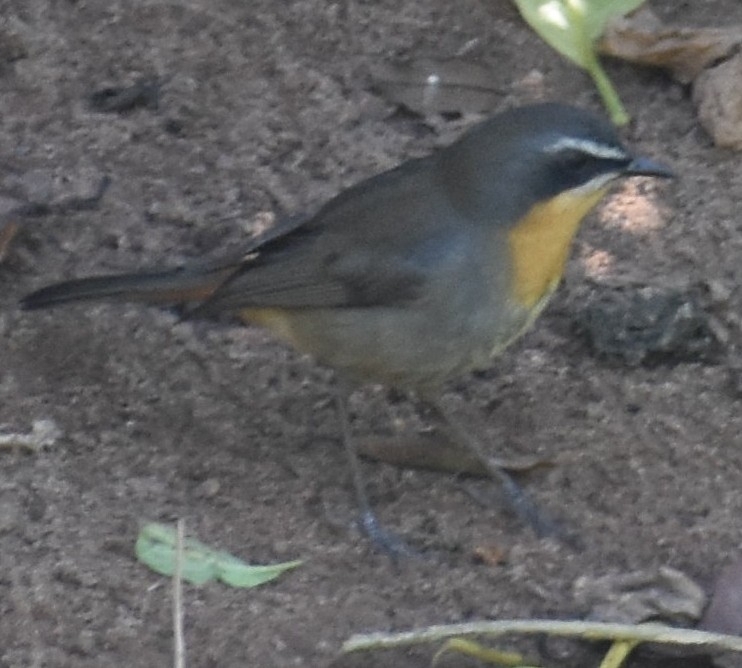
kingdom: Animalia
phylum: Chordata
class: Aves
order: Passeriformes
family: Muscicapidae
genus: Cossypha
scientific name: Cossypha caffra
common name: Cape robin-chat
